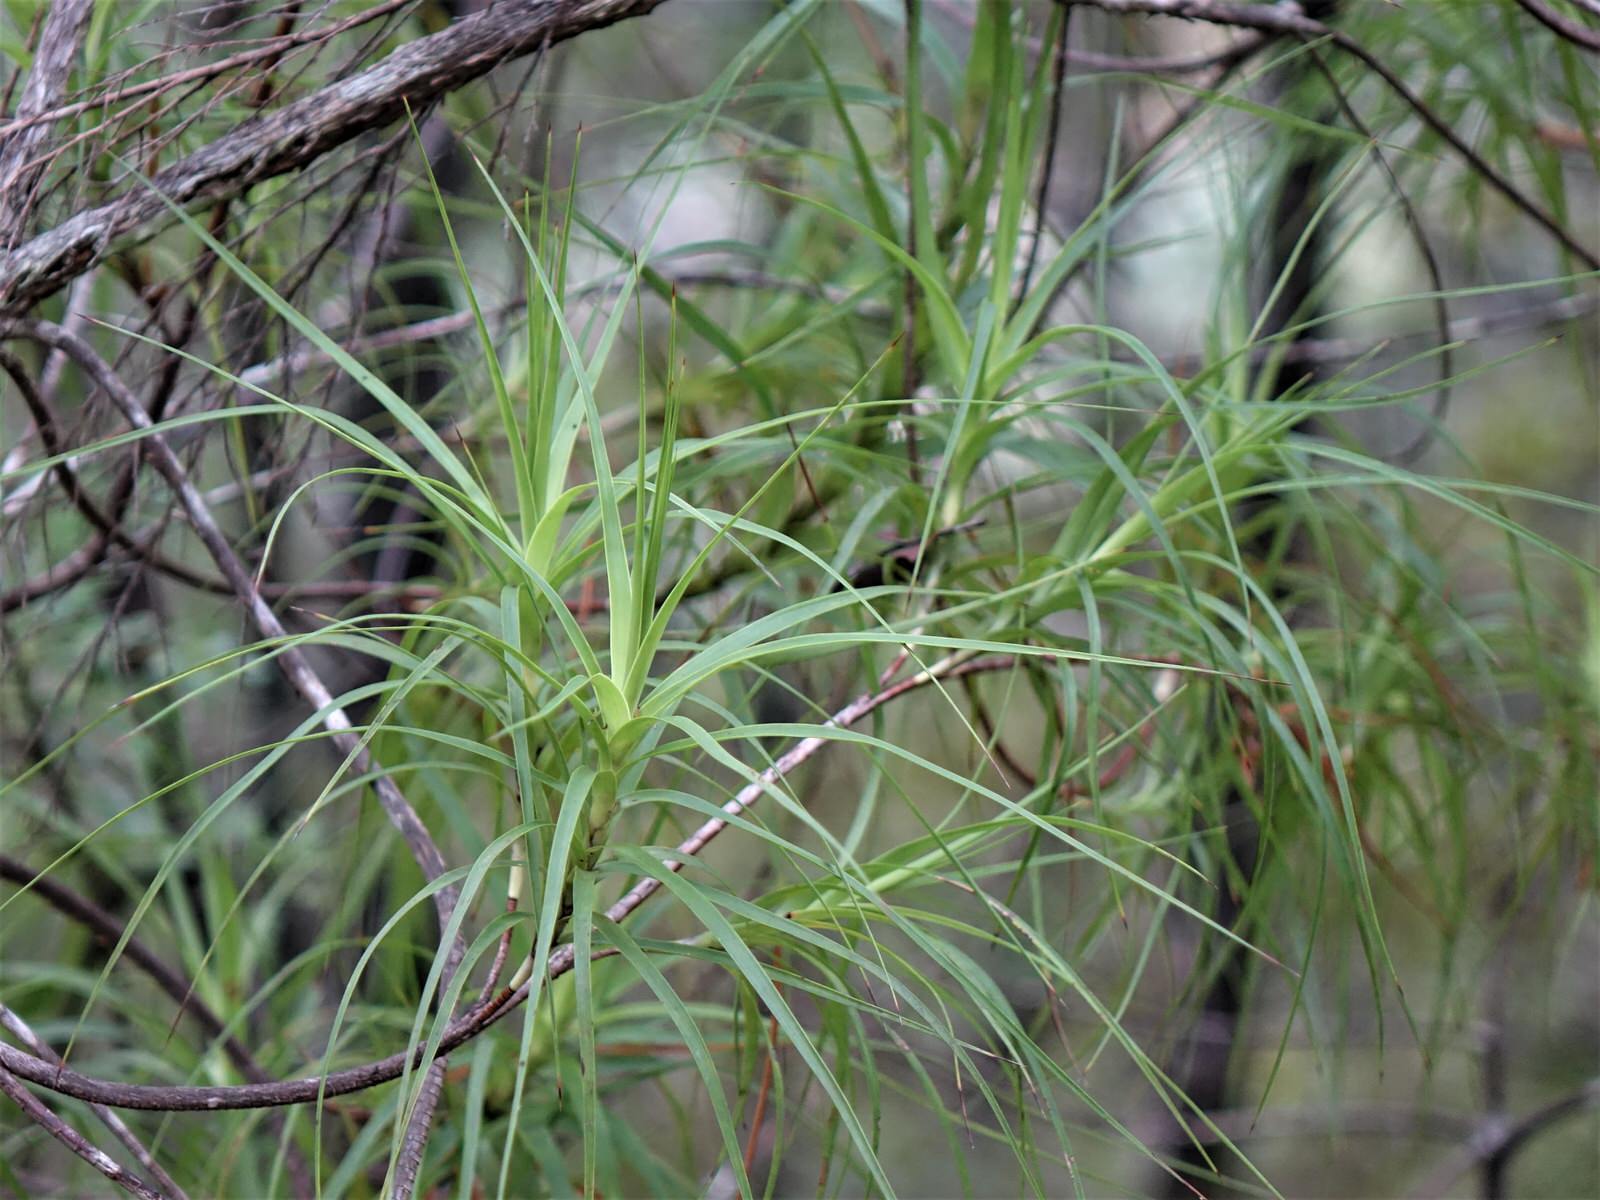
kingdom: Plantae
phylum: Tracheophyta
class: Magnoliopsida
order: Ericales
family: Ericaceae
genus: Dracophyllum
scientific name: Dracophyllum sinclairii
